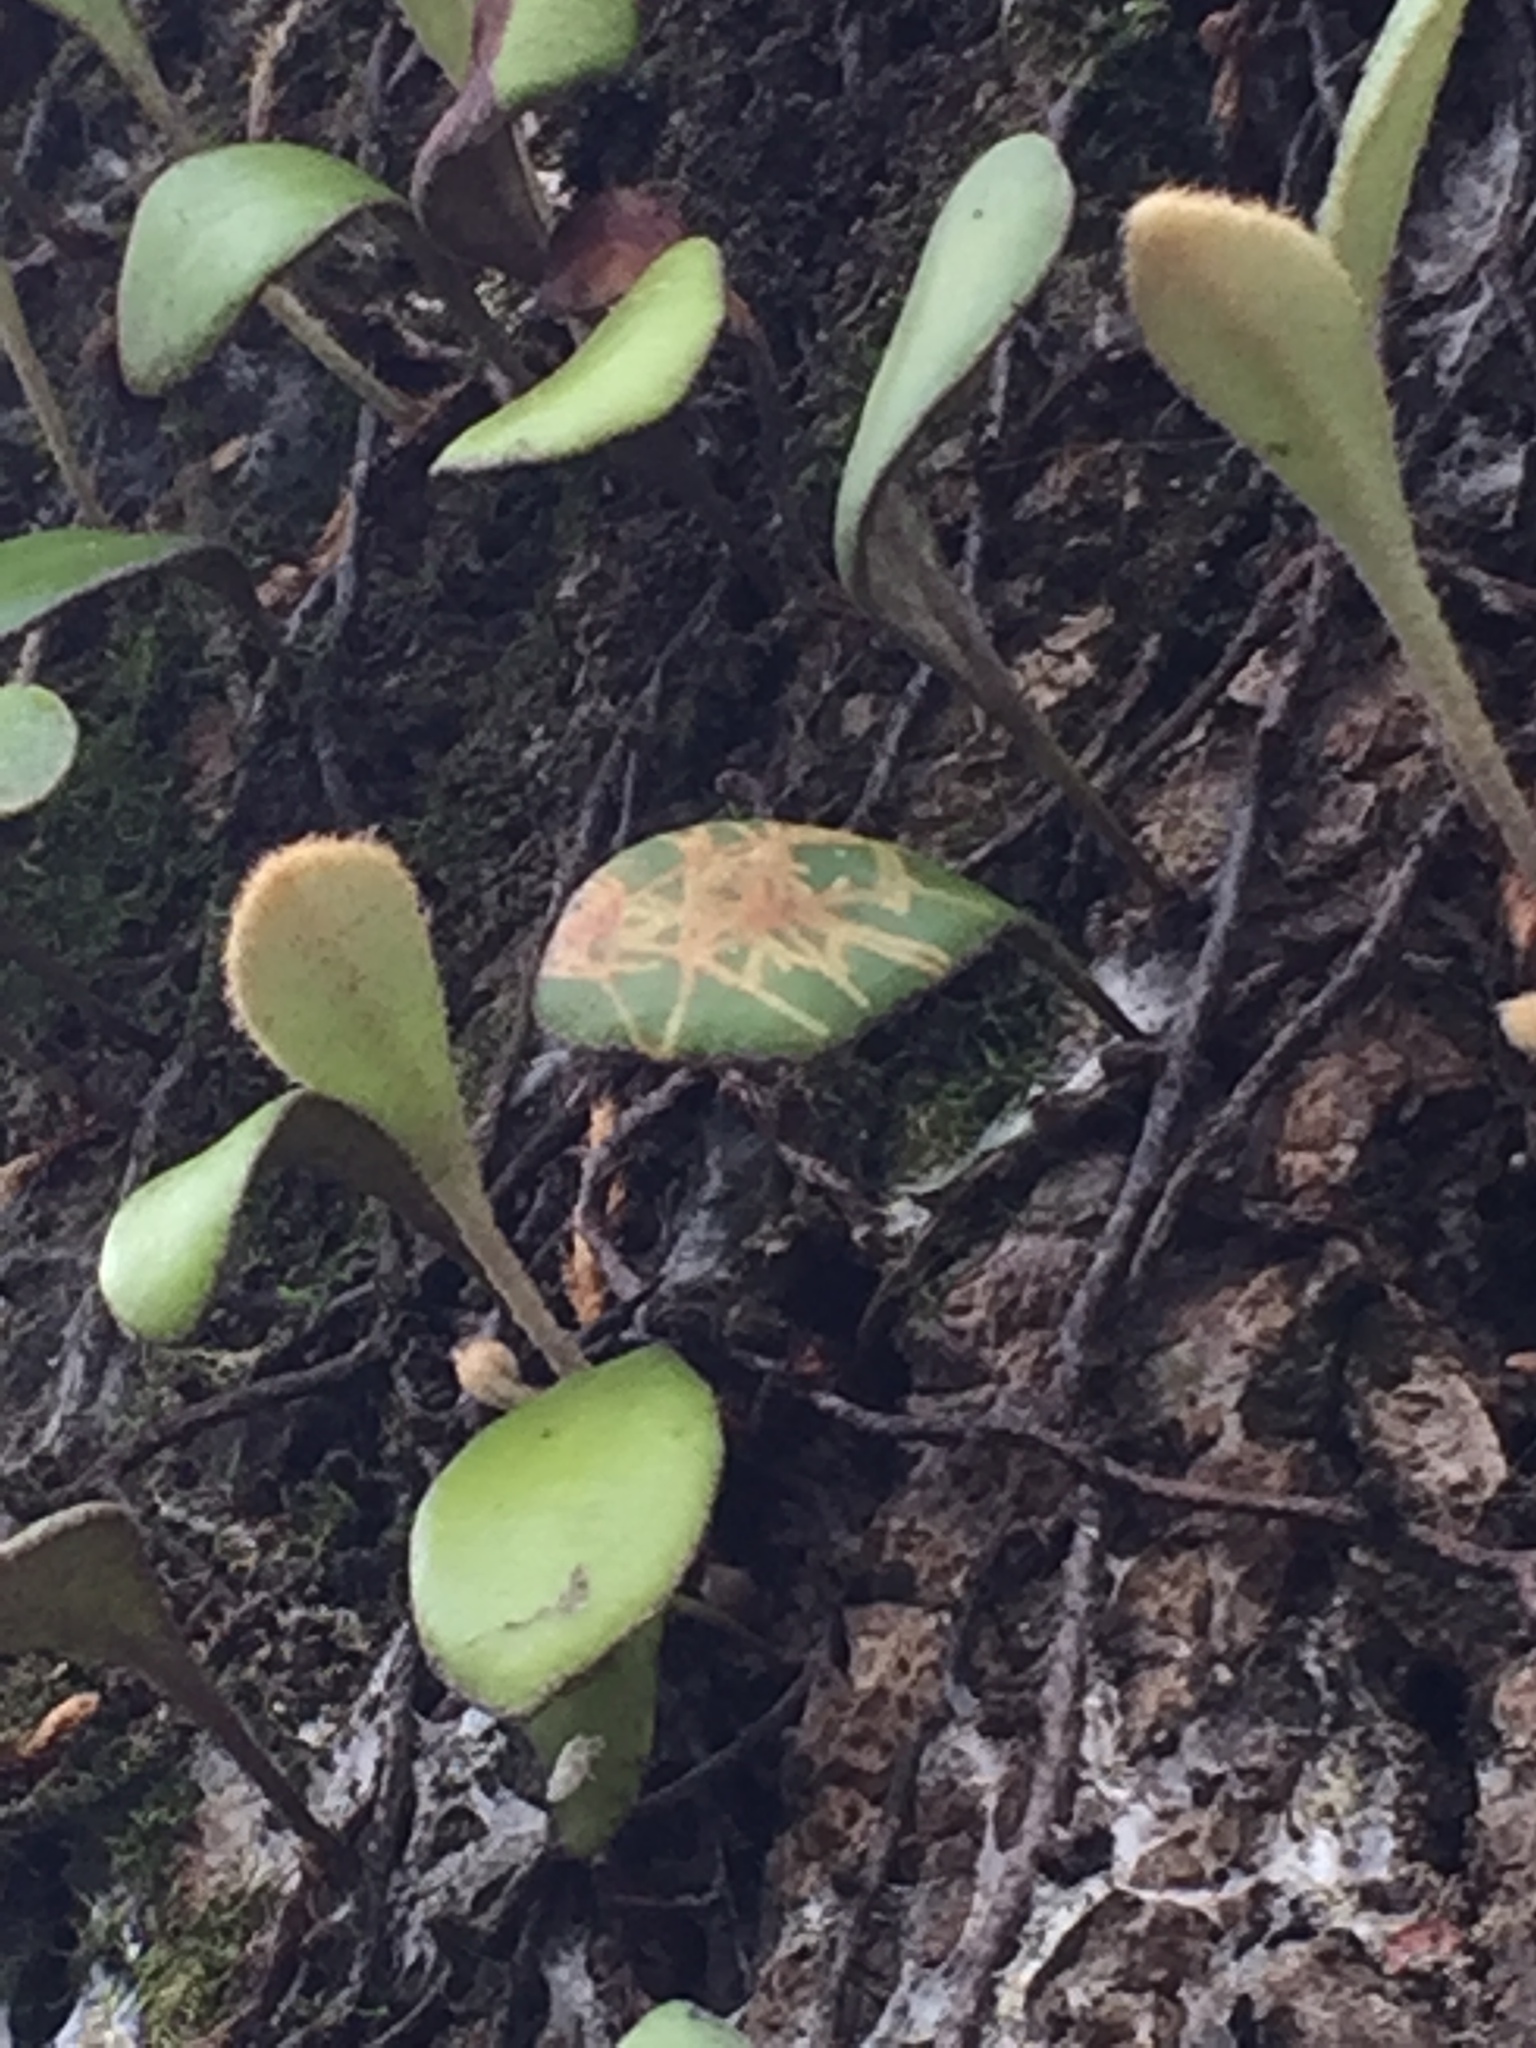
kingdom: Animalia
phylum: Arthropoda
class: Insecta
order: Lepidoptera
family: Tortricidae
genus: Philocryptica
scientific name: Philocryptica polypodii
